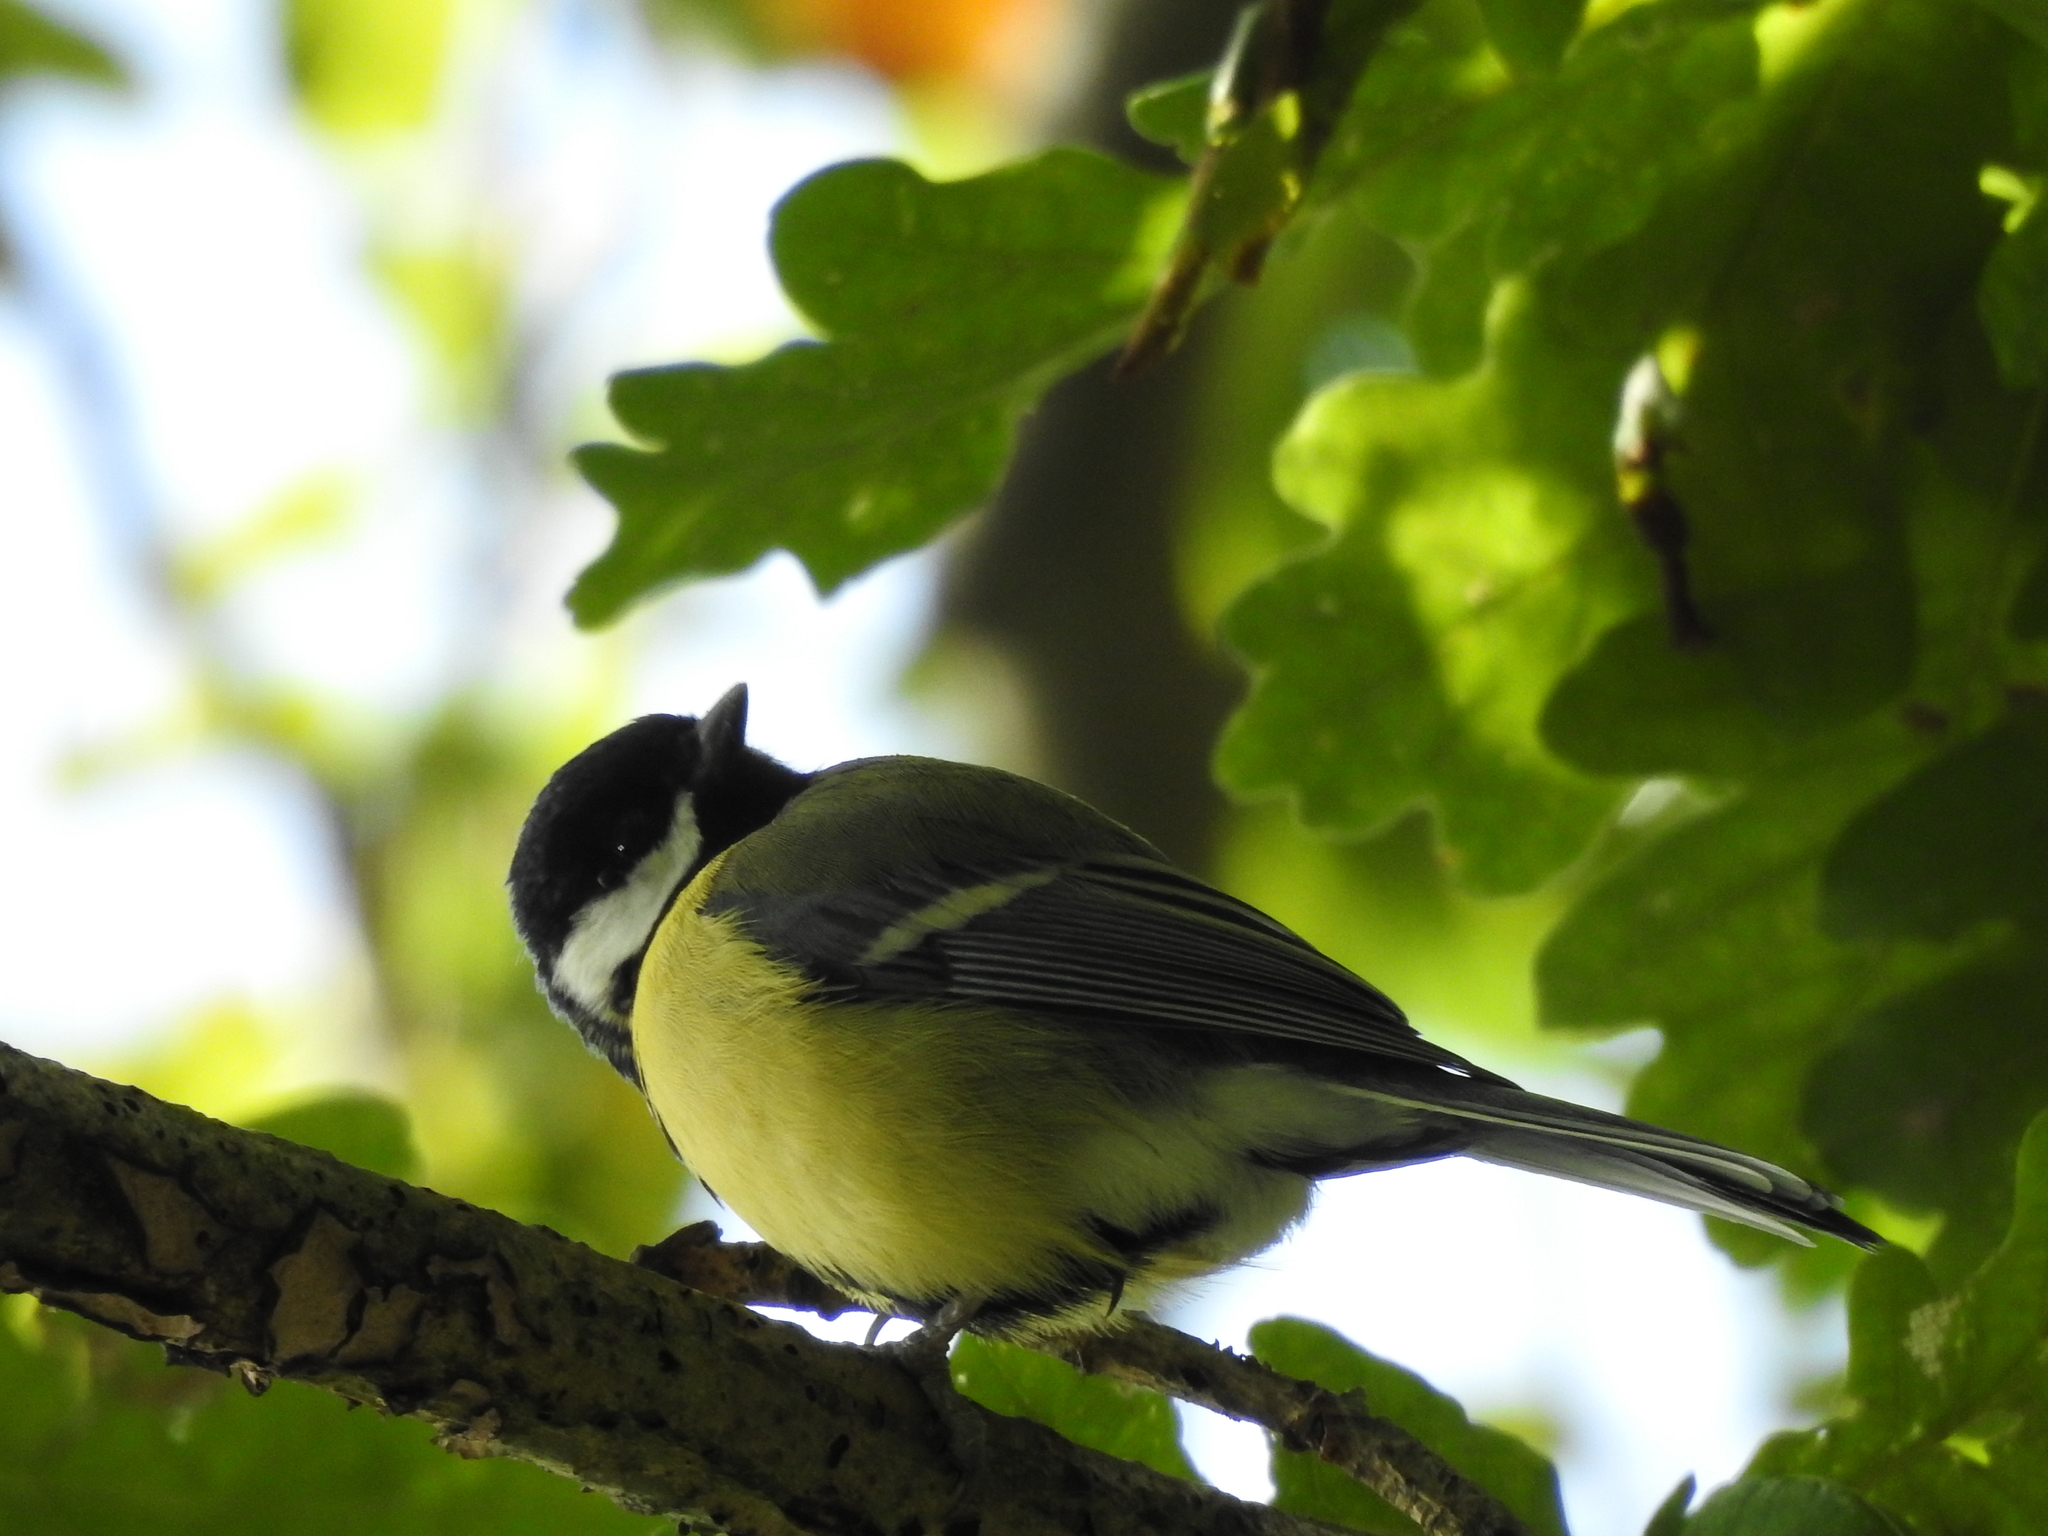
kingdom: Animalia
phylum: Chordata
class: Aves
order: Passeriformes
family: Paridae
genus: Parus
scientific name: Parus major
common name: Great tit
